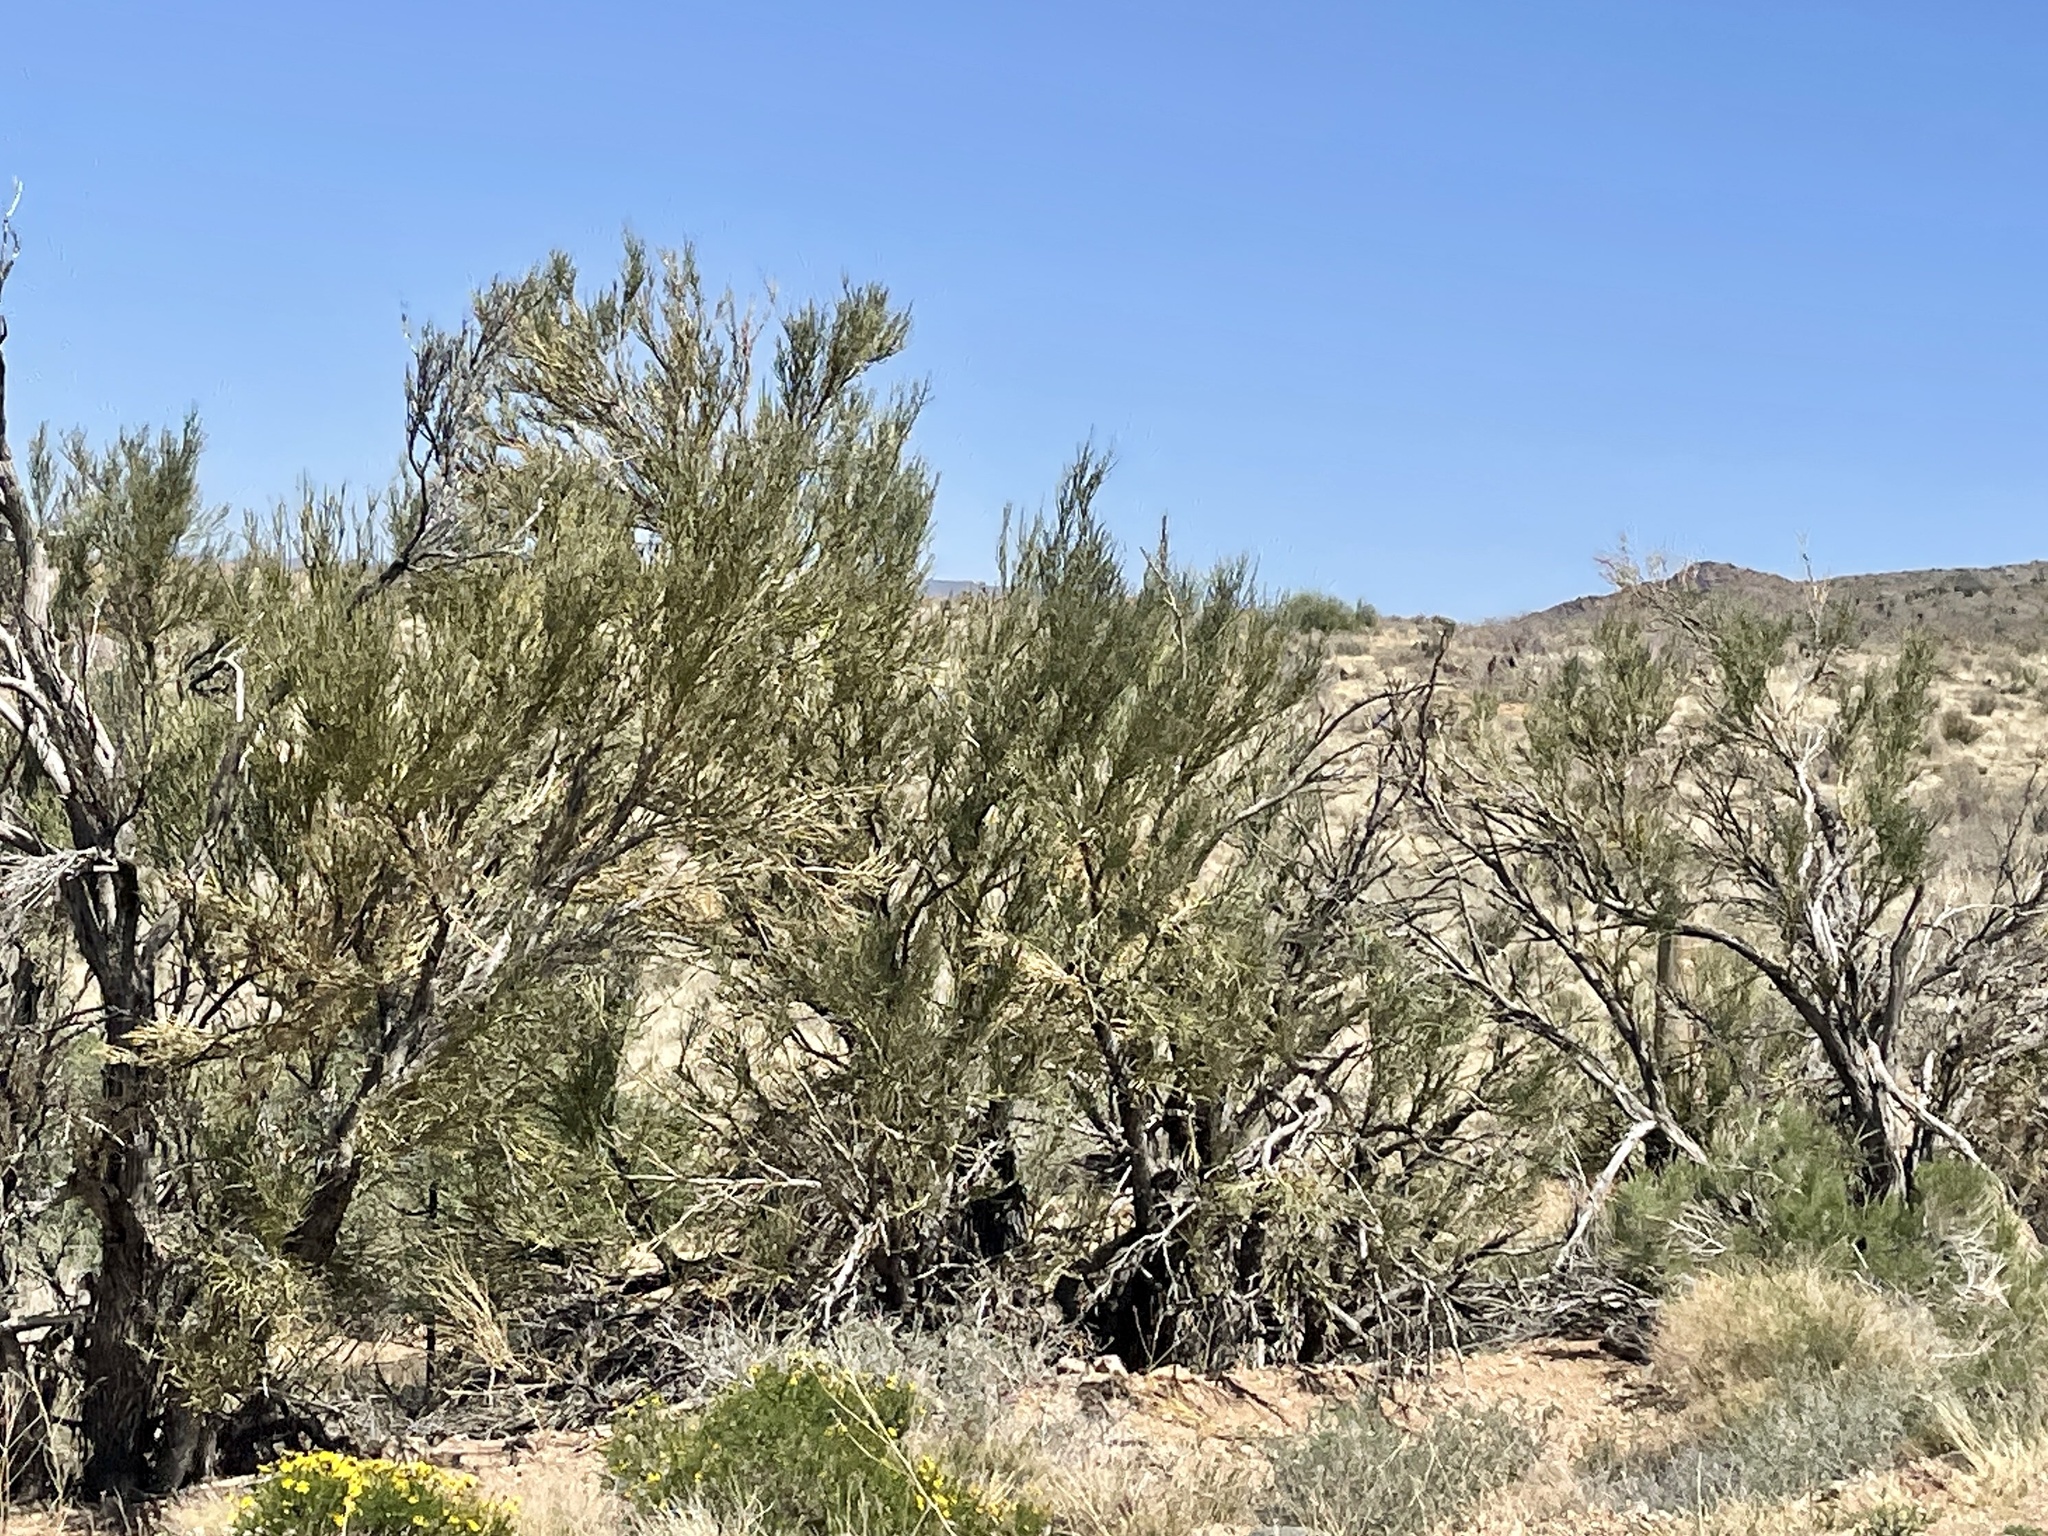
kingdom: Plantae
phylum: Tracheophyta
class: Magnoliopsida
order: Celastrales
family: Celastraceae
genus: Canotia
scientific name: Canotia holacantha
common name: Crucifixion thorns
